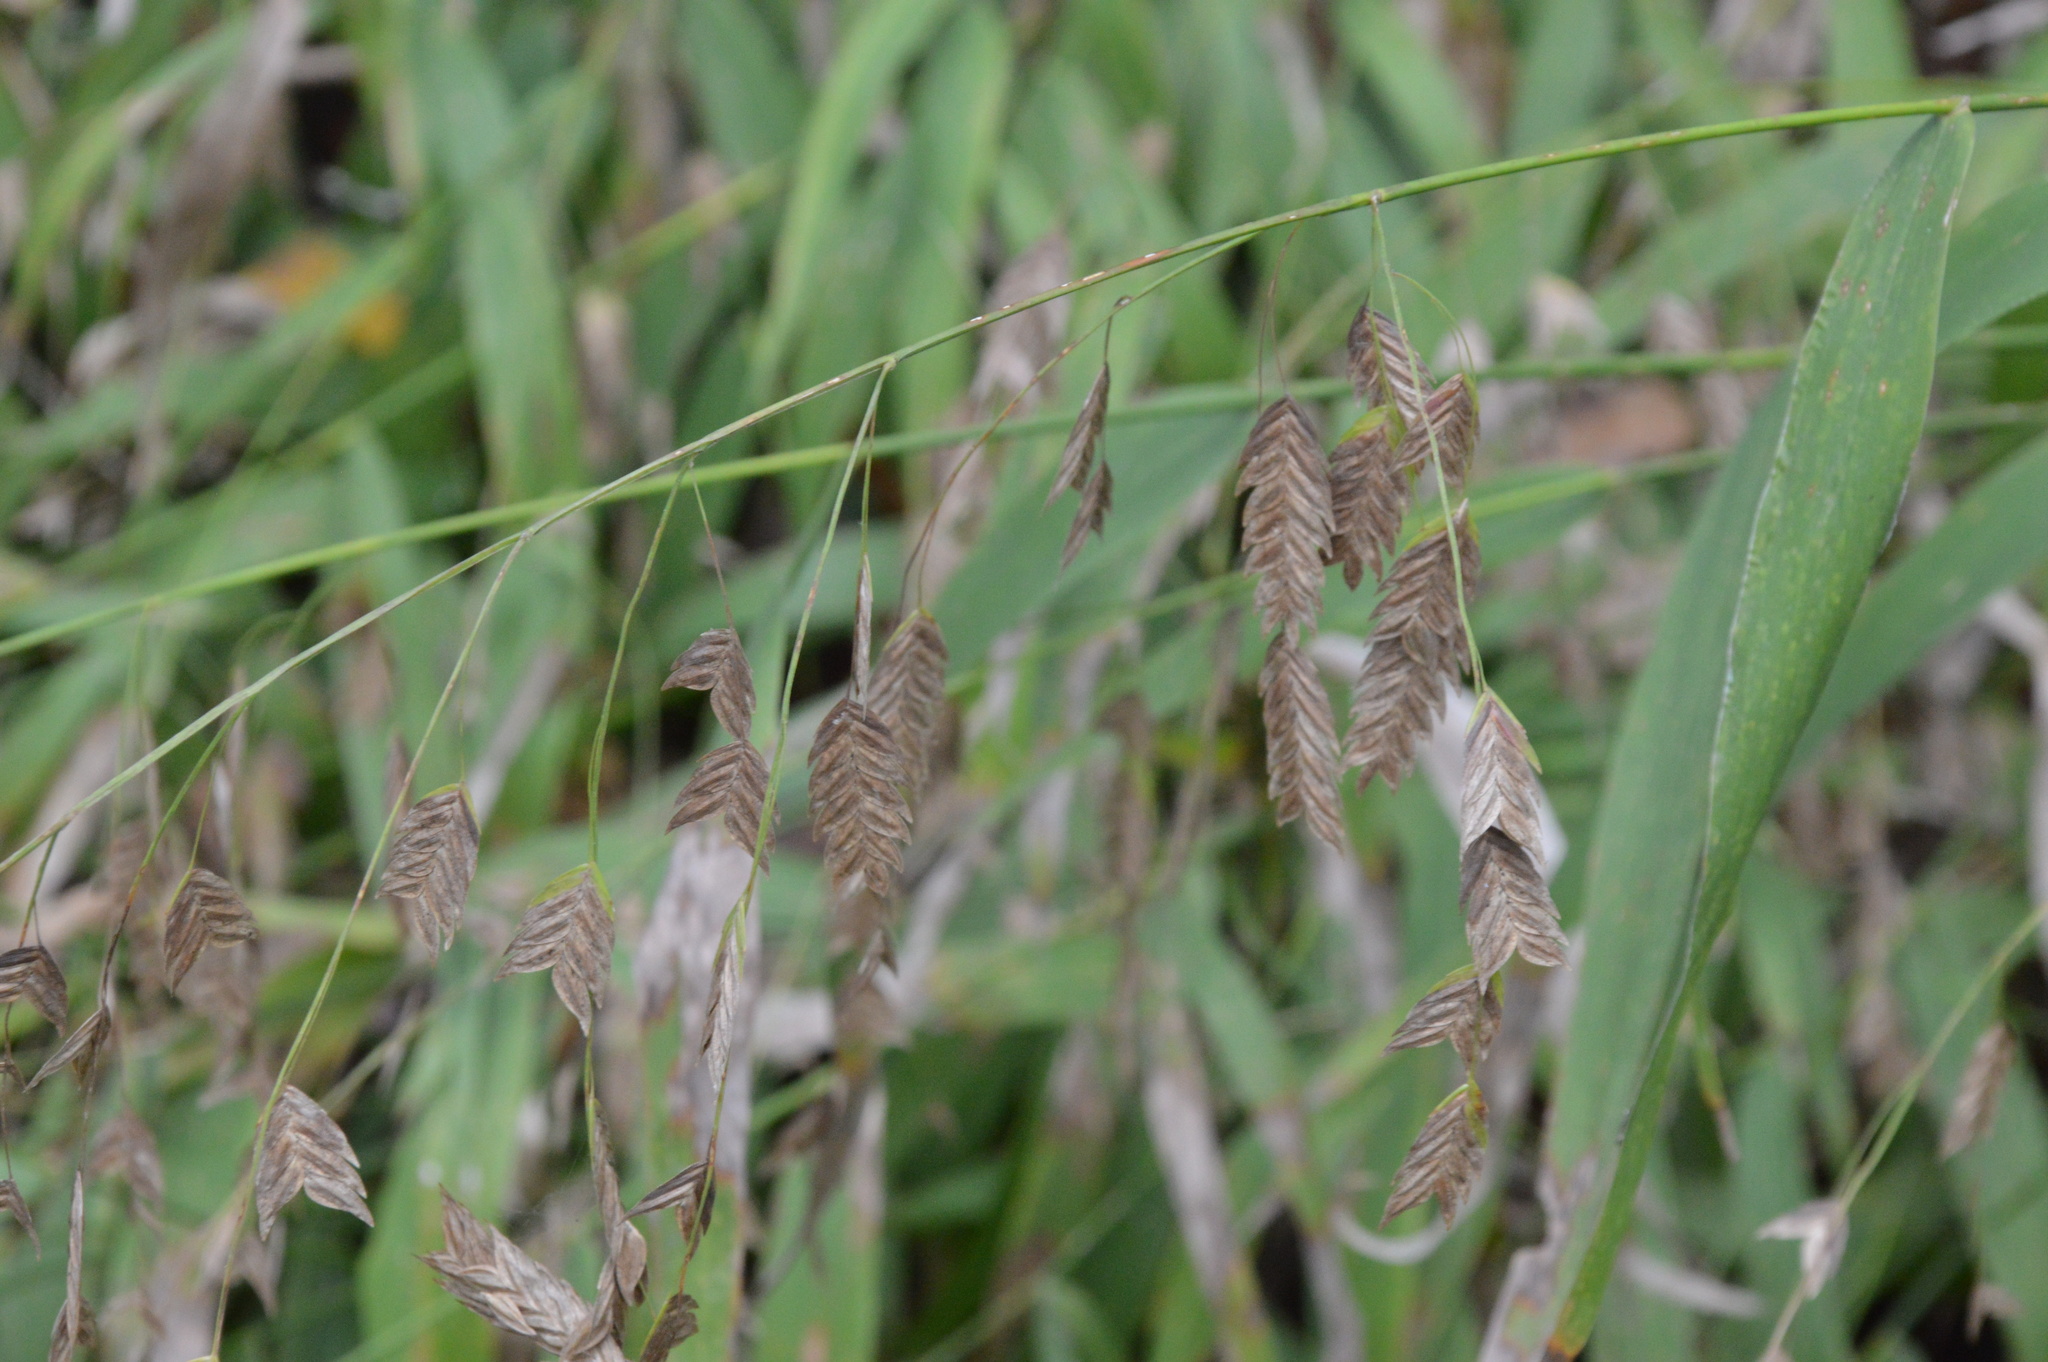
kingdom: Plantae
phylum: Tracheophyta
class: Liliopsida
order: Poales
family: Poaceae
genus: Chasmanthium
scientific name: Chasmanthium latifolium
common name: Broad-leaved chasmanthium
